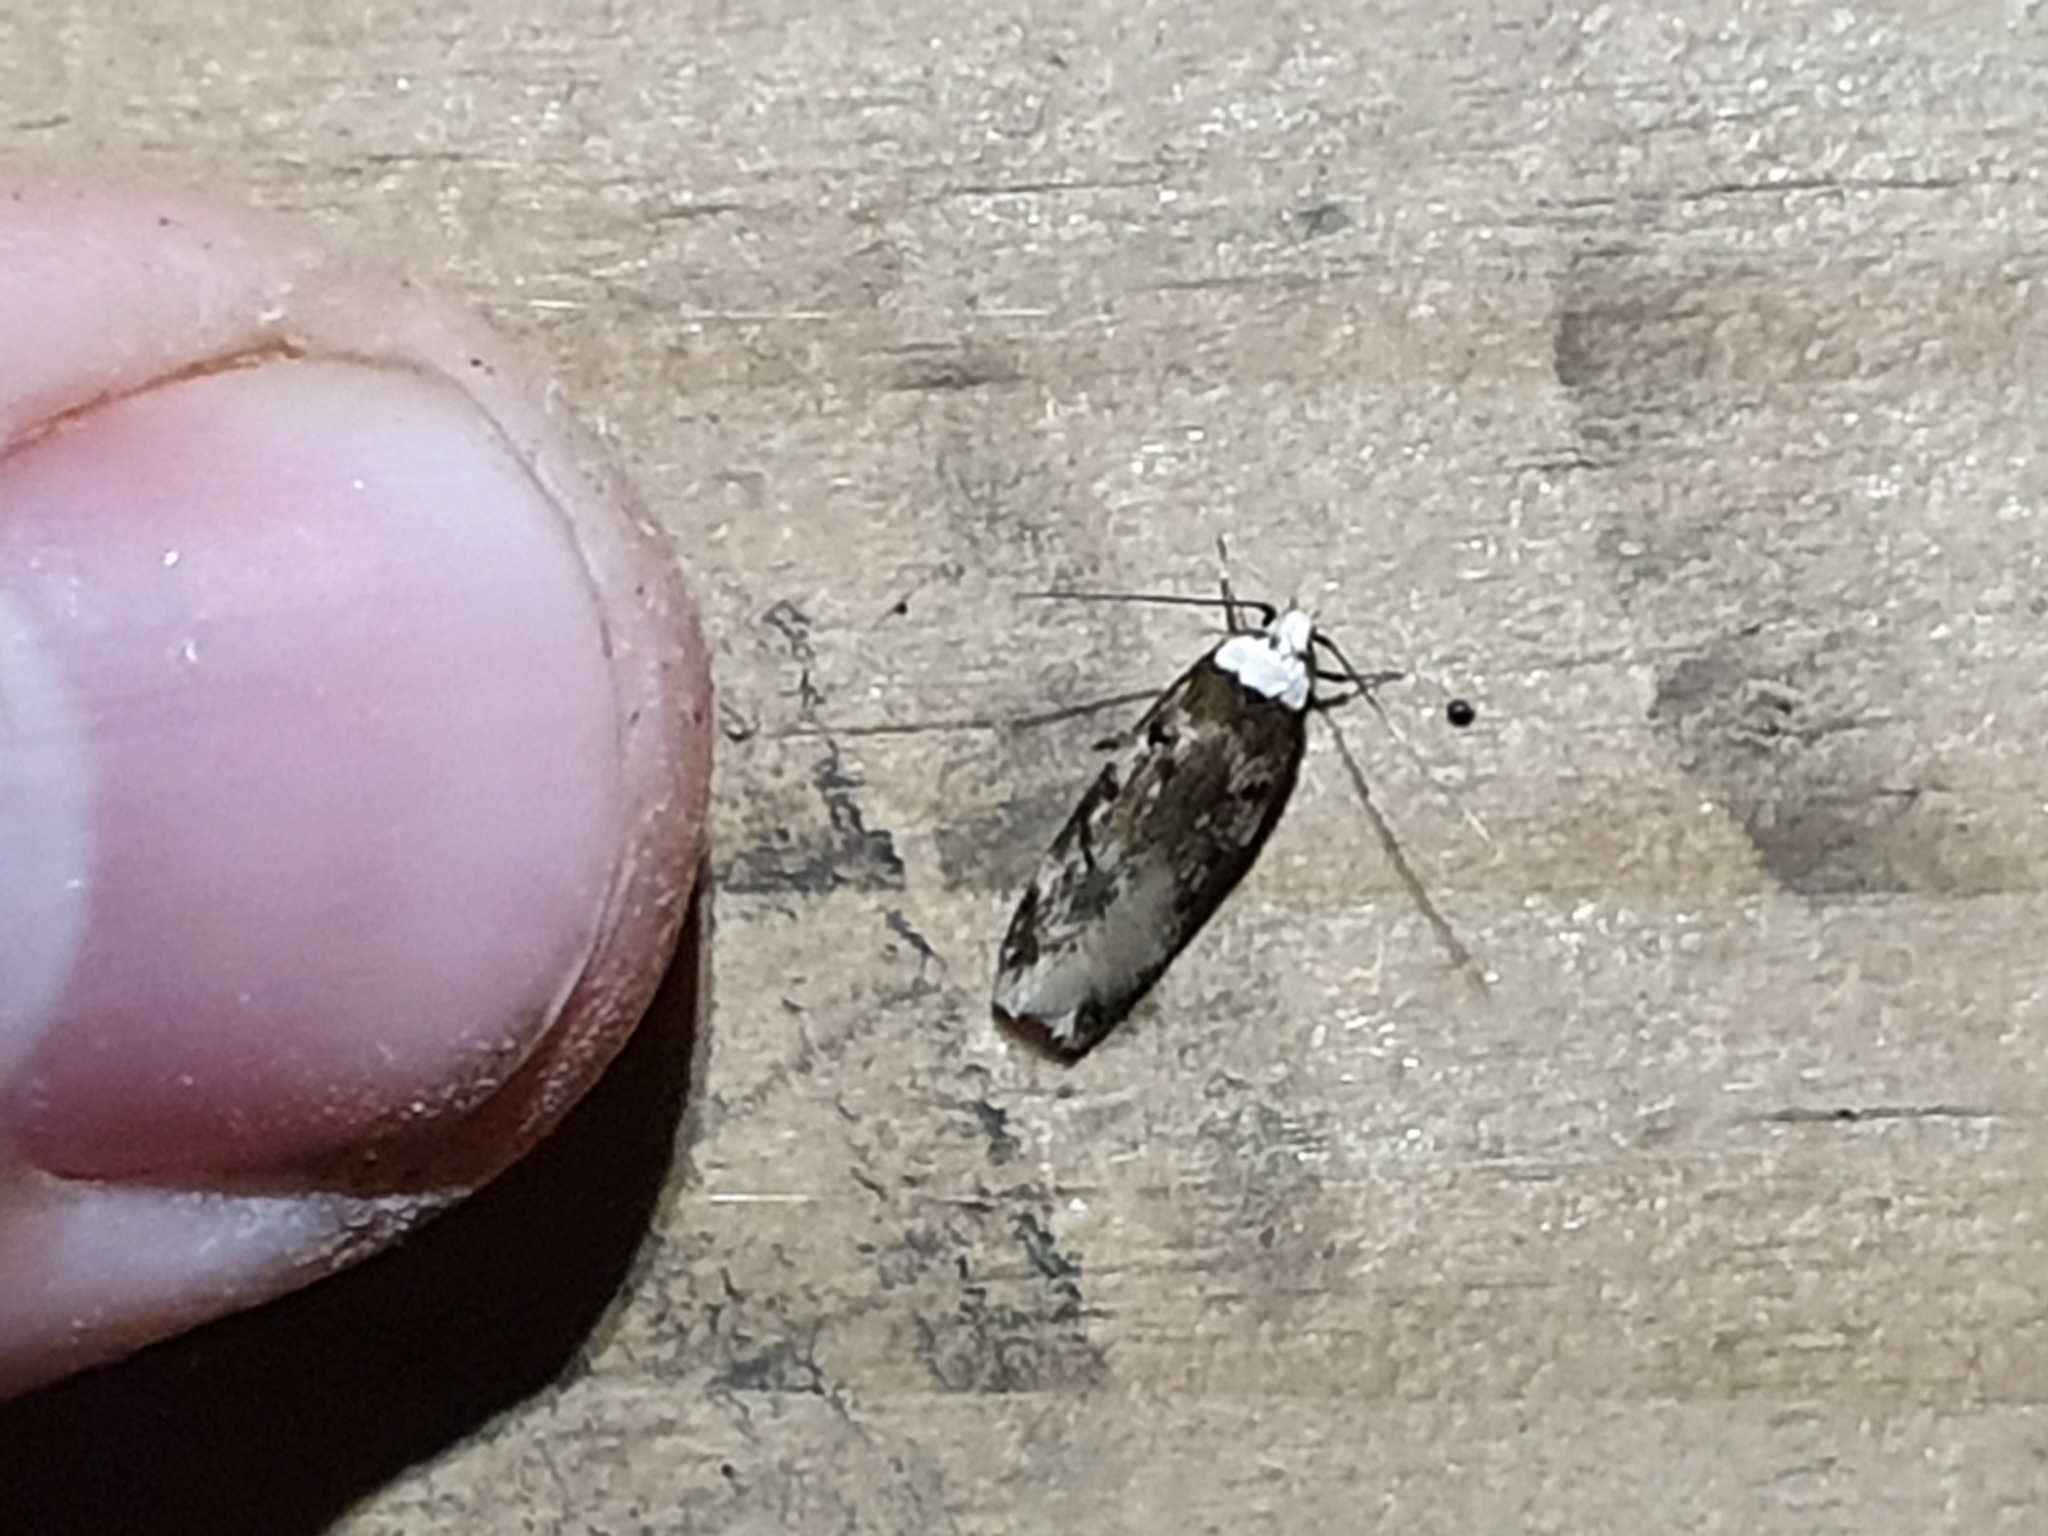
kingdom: Animalia
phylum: Arthropoda
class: Insecta
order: Lepidoptera
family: Oecophoridae
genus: Endrosis
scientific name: Endrosis sarcitrella
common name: White-shouldered house moth
